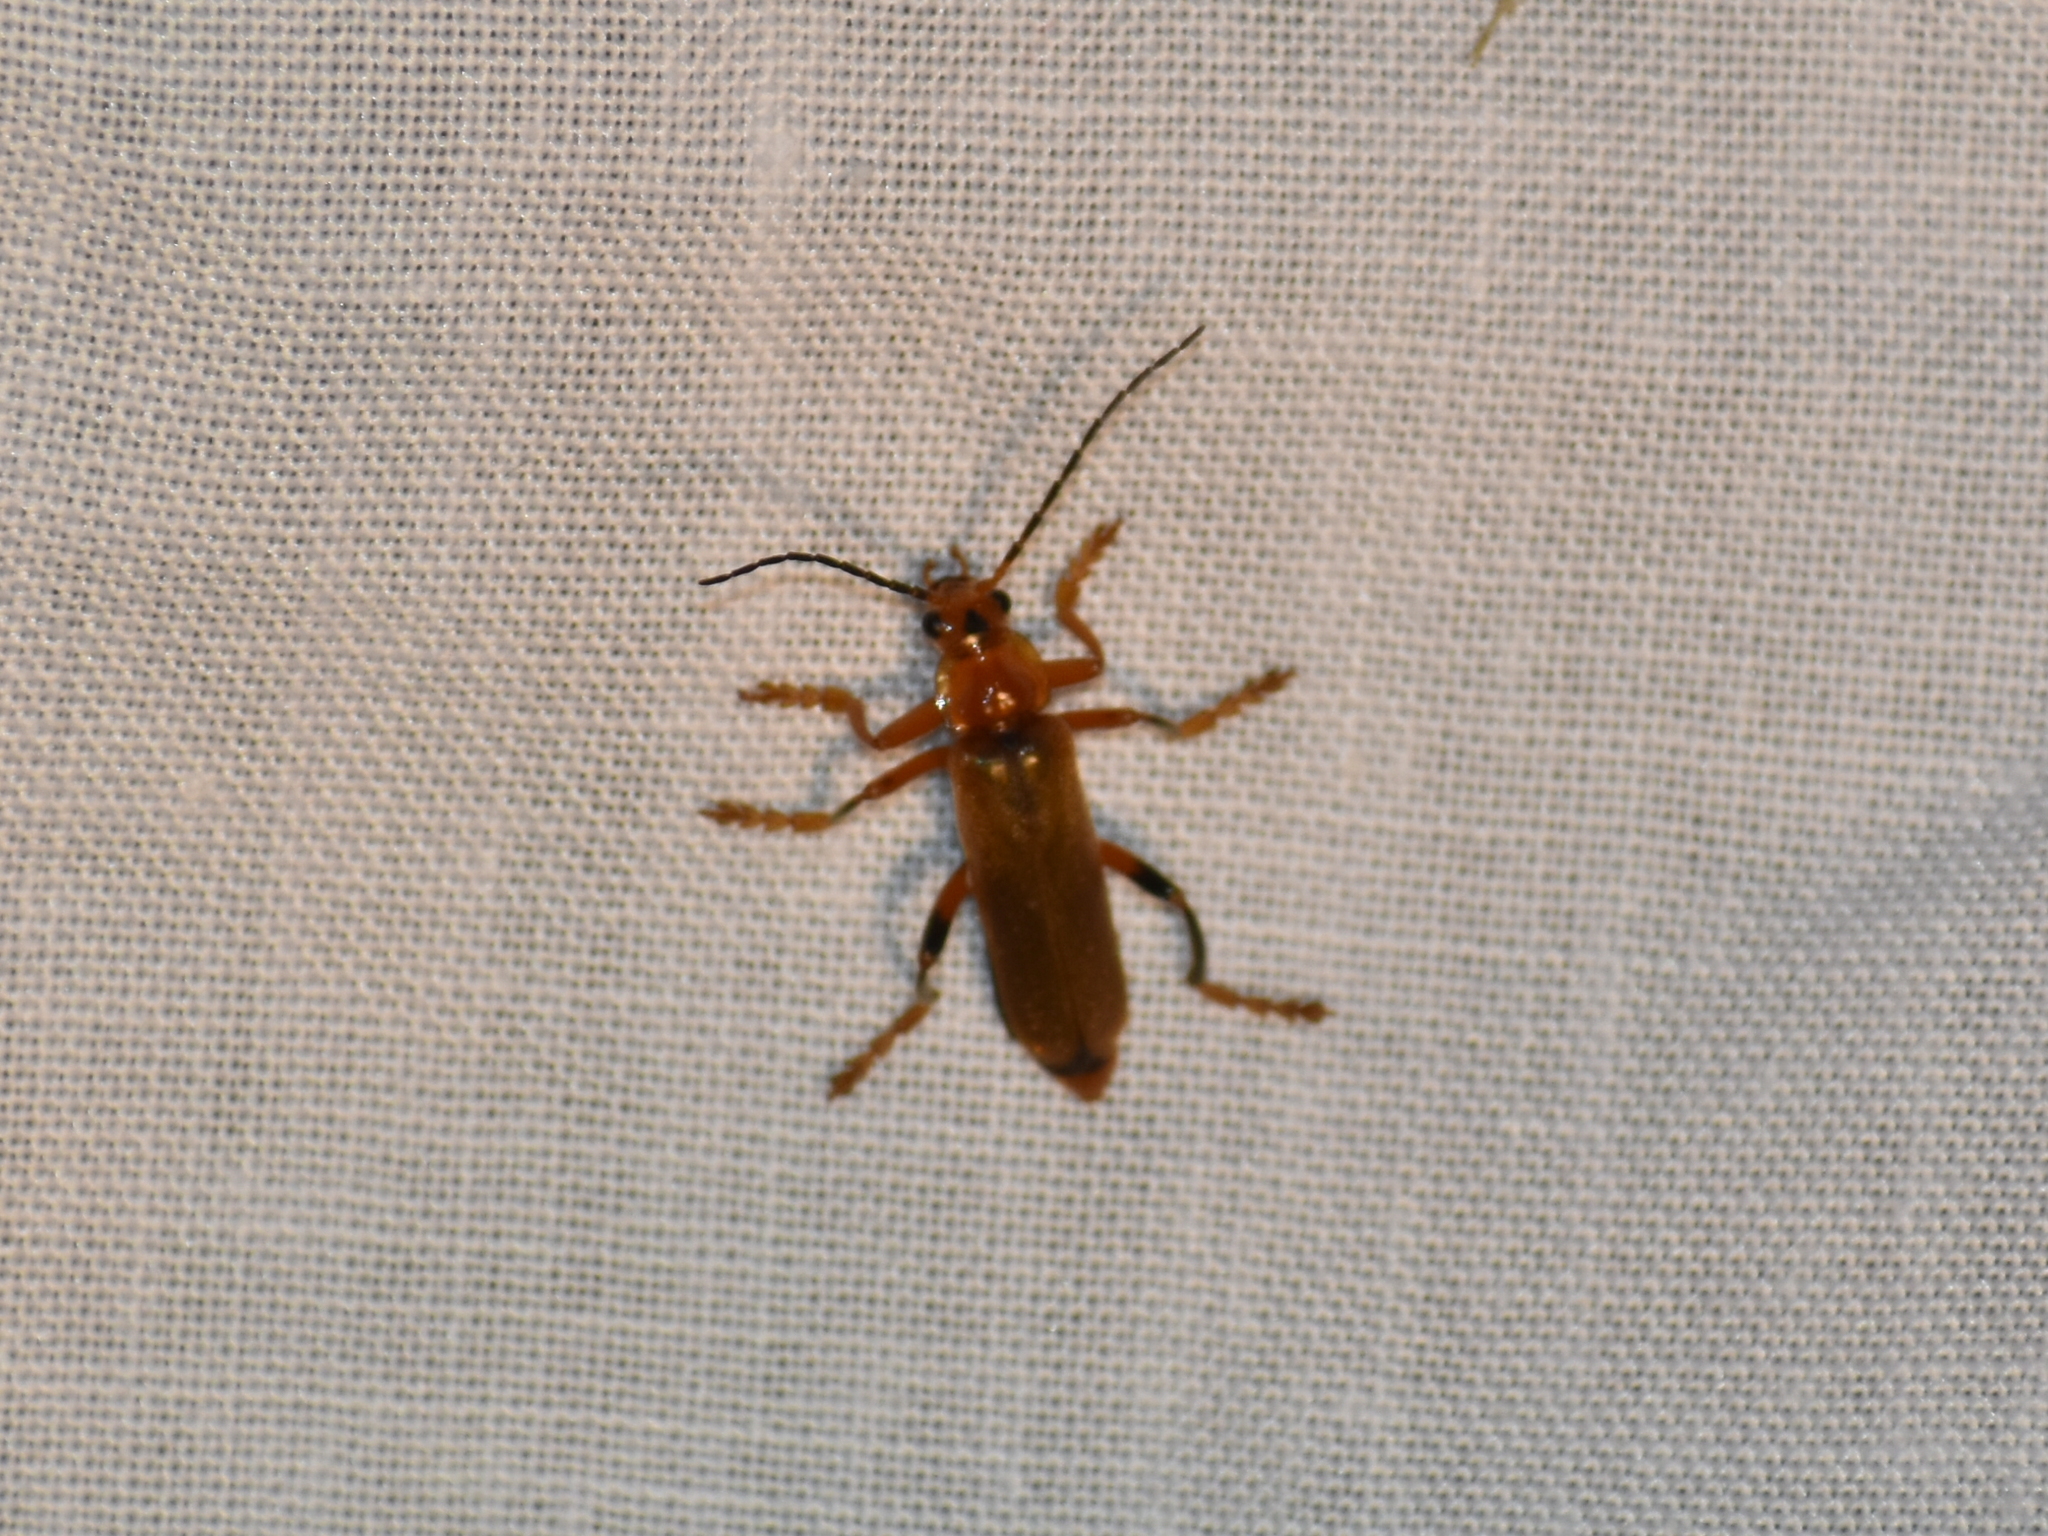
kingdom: Animalia
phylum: Arthropoda
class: Insecta
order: Coleoptera
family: Cantharidae
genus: Cantharis
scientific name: Cantharis livida
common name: Livid soldier beetle
